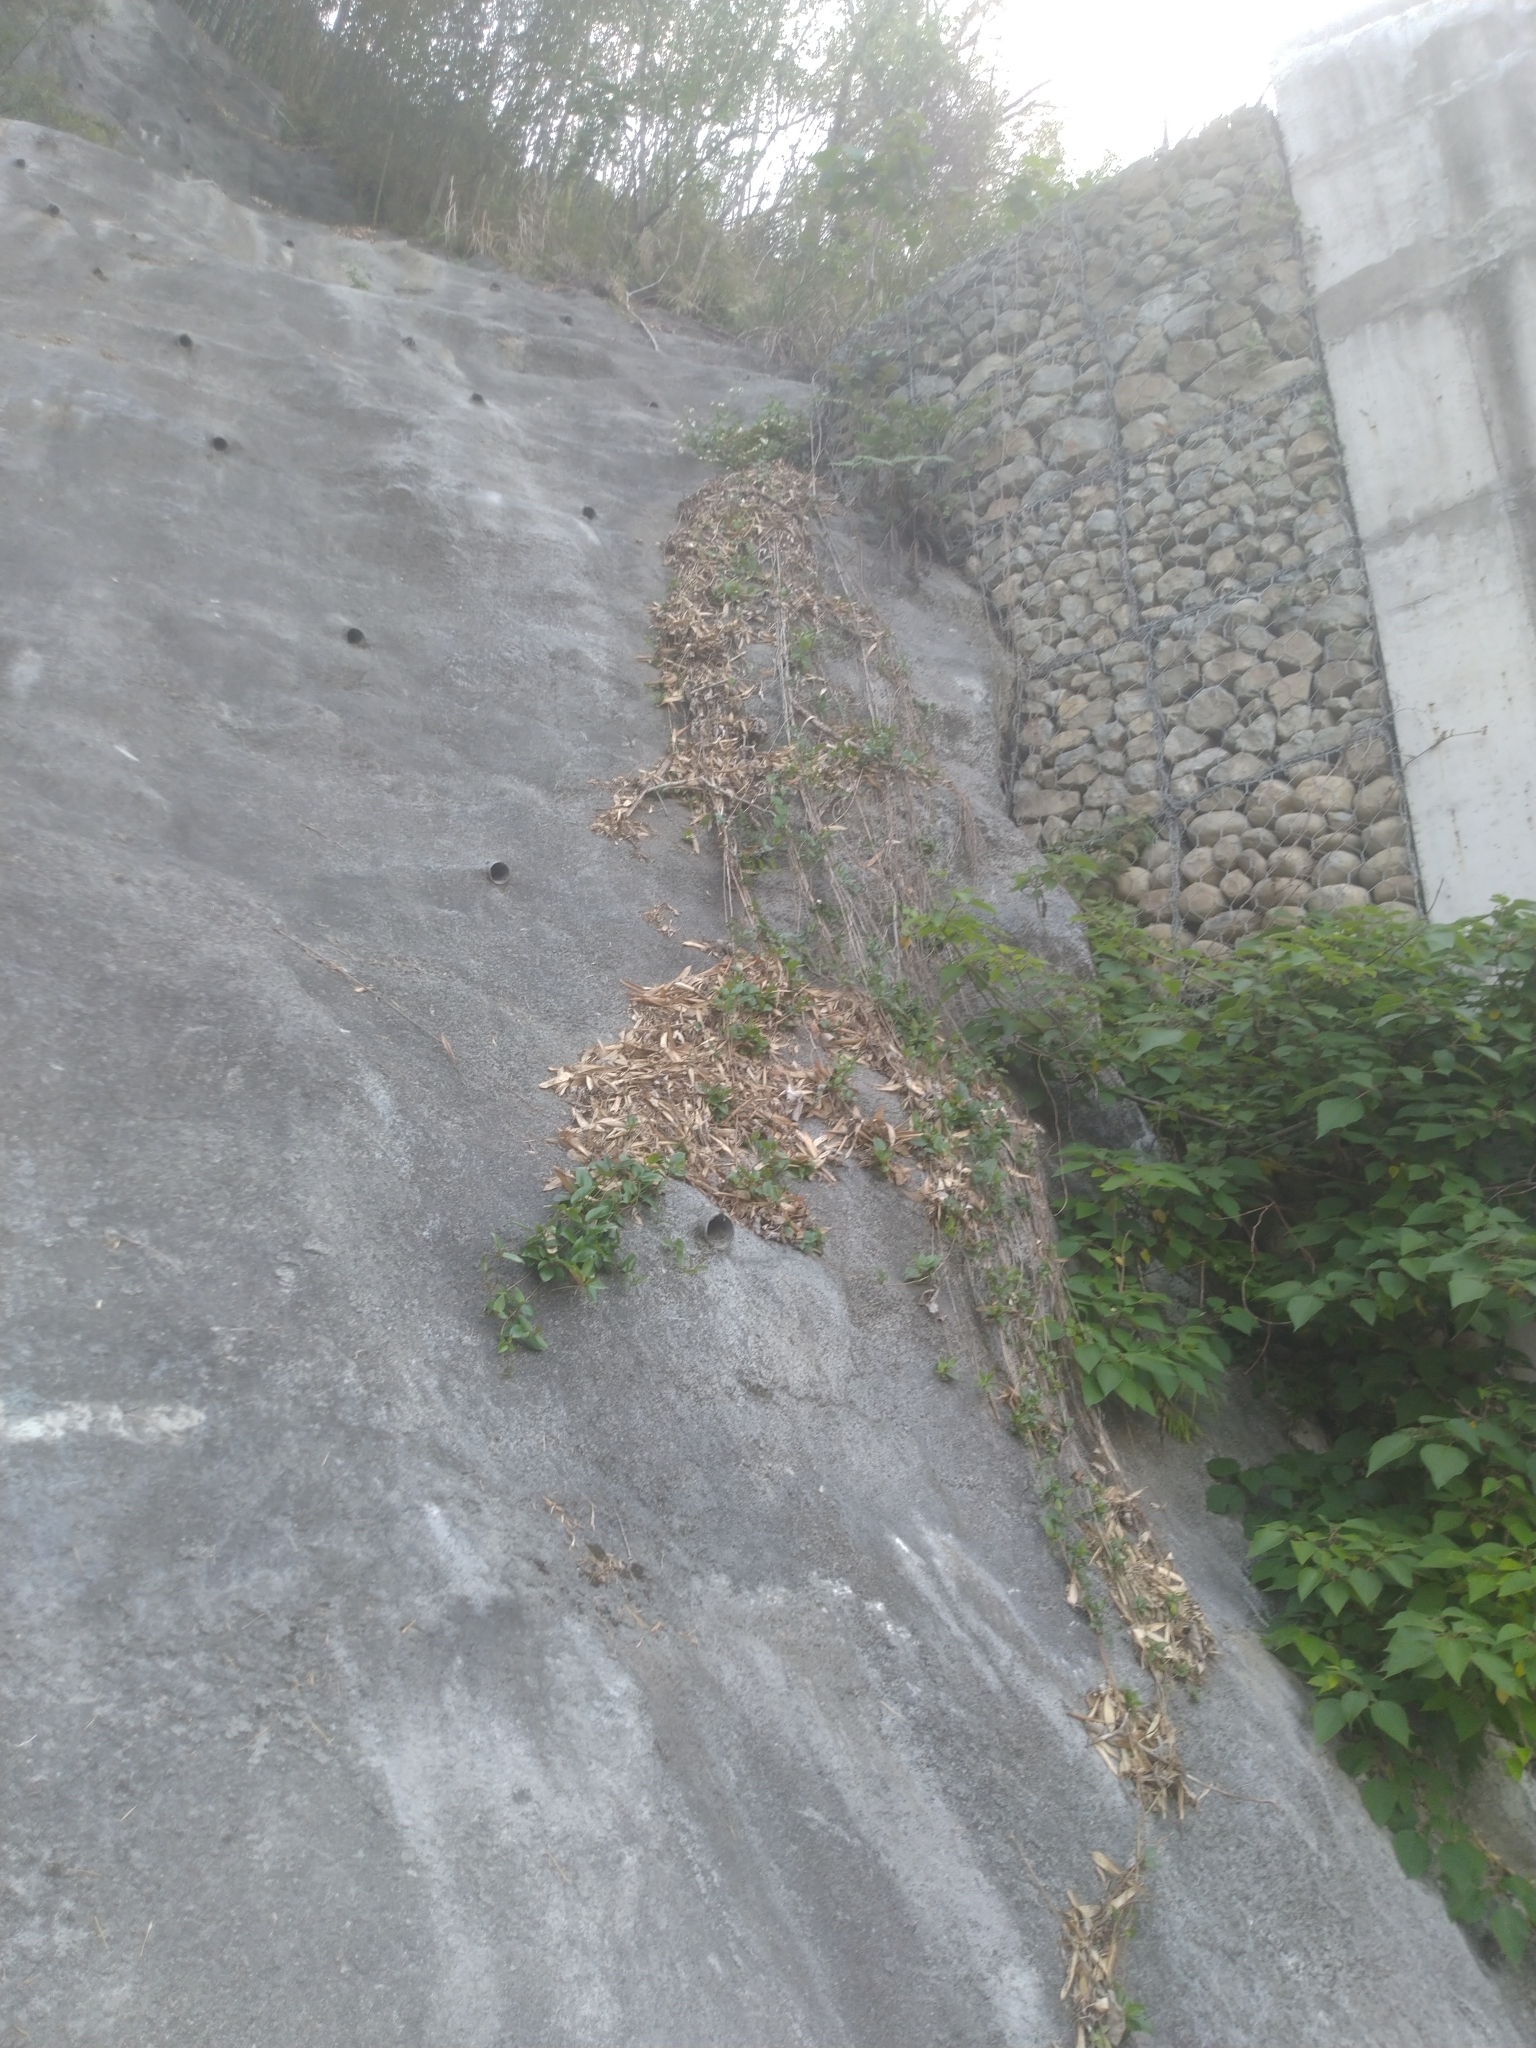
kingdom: Plantae
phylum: Tracheophyta
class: Magnoliopsida
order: Rosales
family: Moraceae
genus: Broussonetia
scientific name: Broussonetia papyrifera
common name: Paper mulberry
